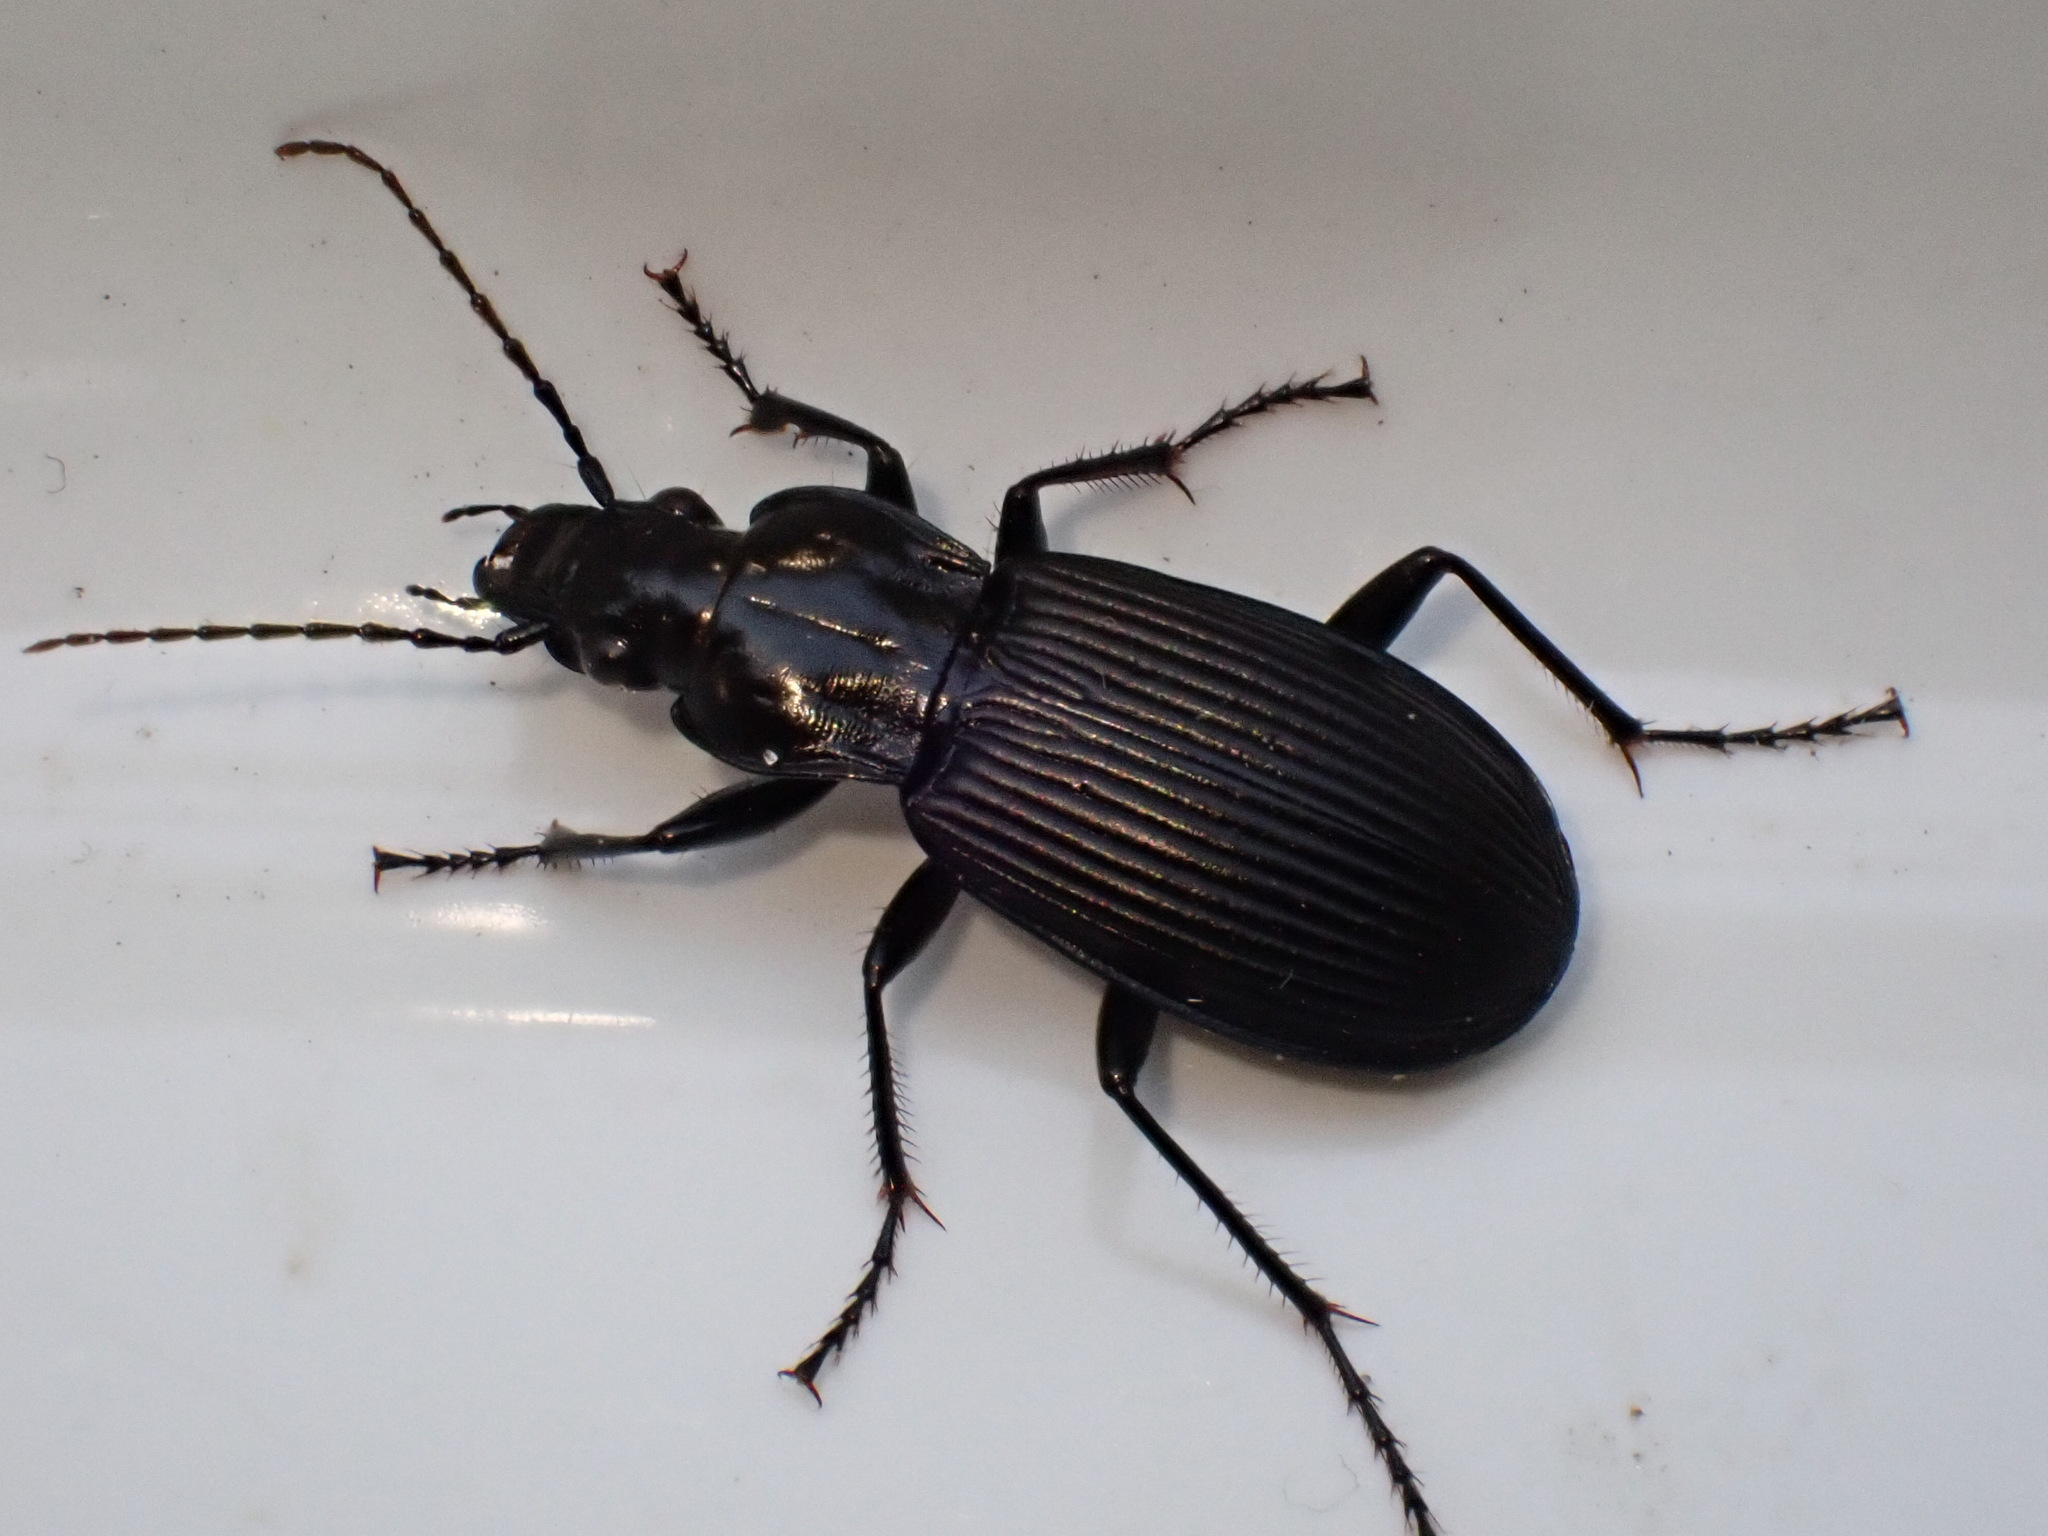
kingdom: Animalia
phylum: Arthropoda
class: Insecta
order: Coleoptera
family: Carabidae
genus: Pterostichus
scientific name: Pterostichus niger
